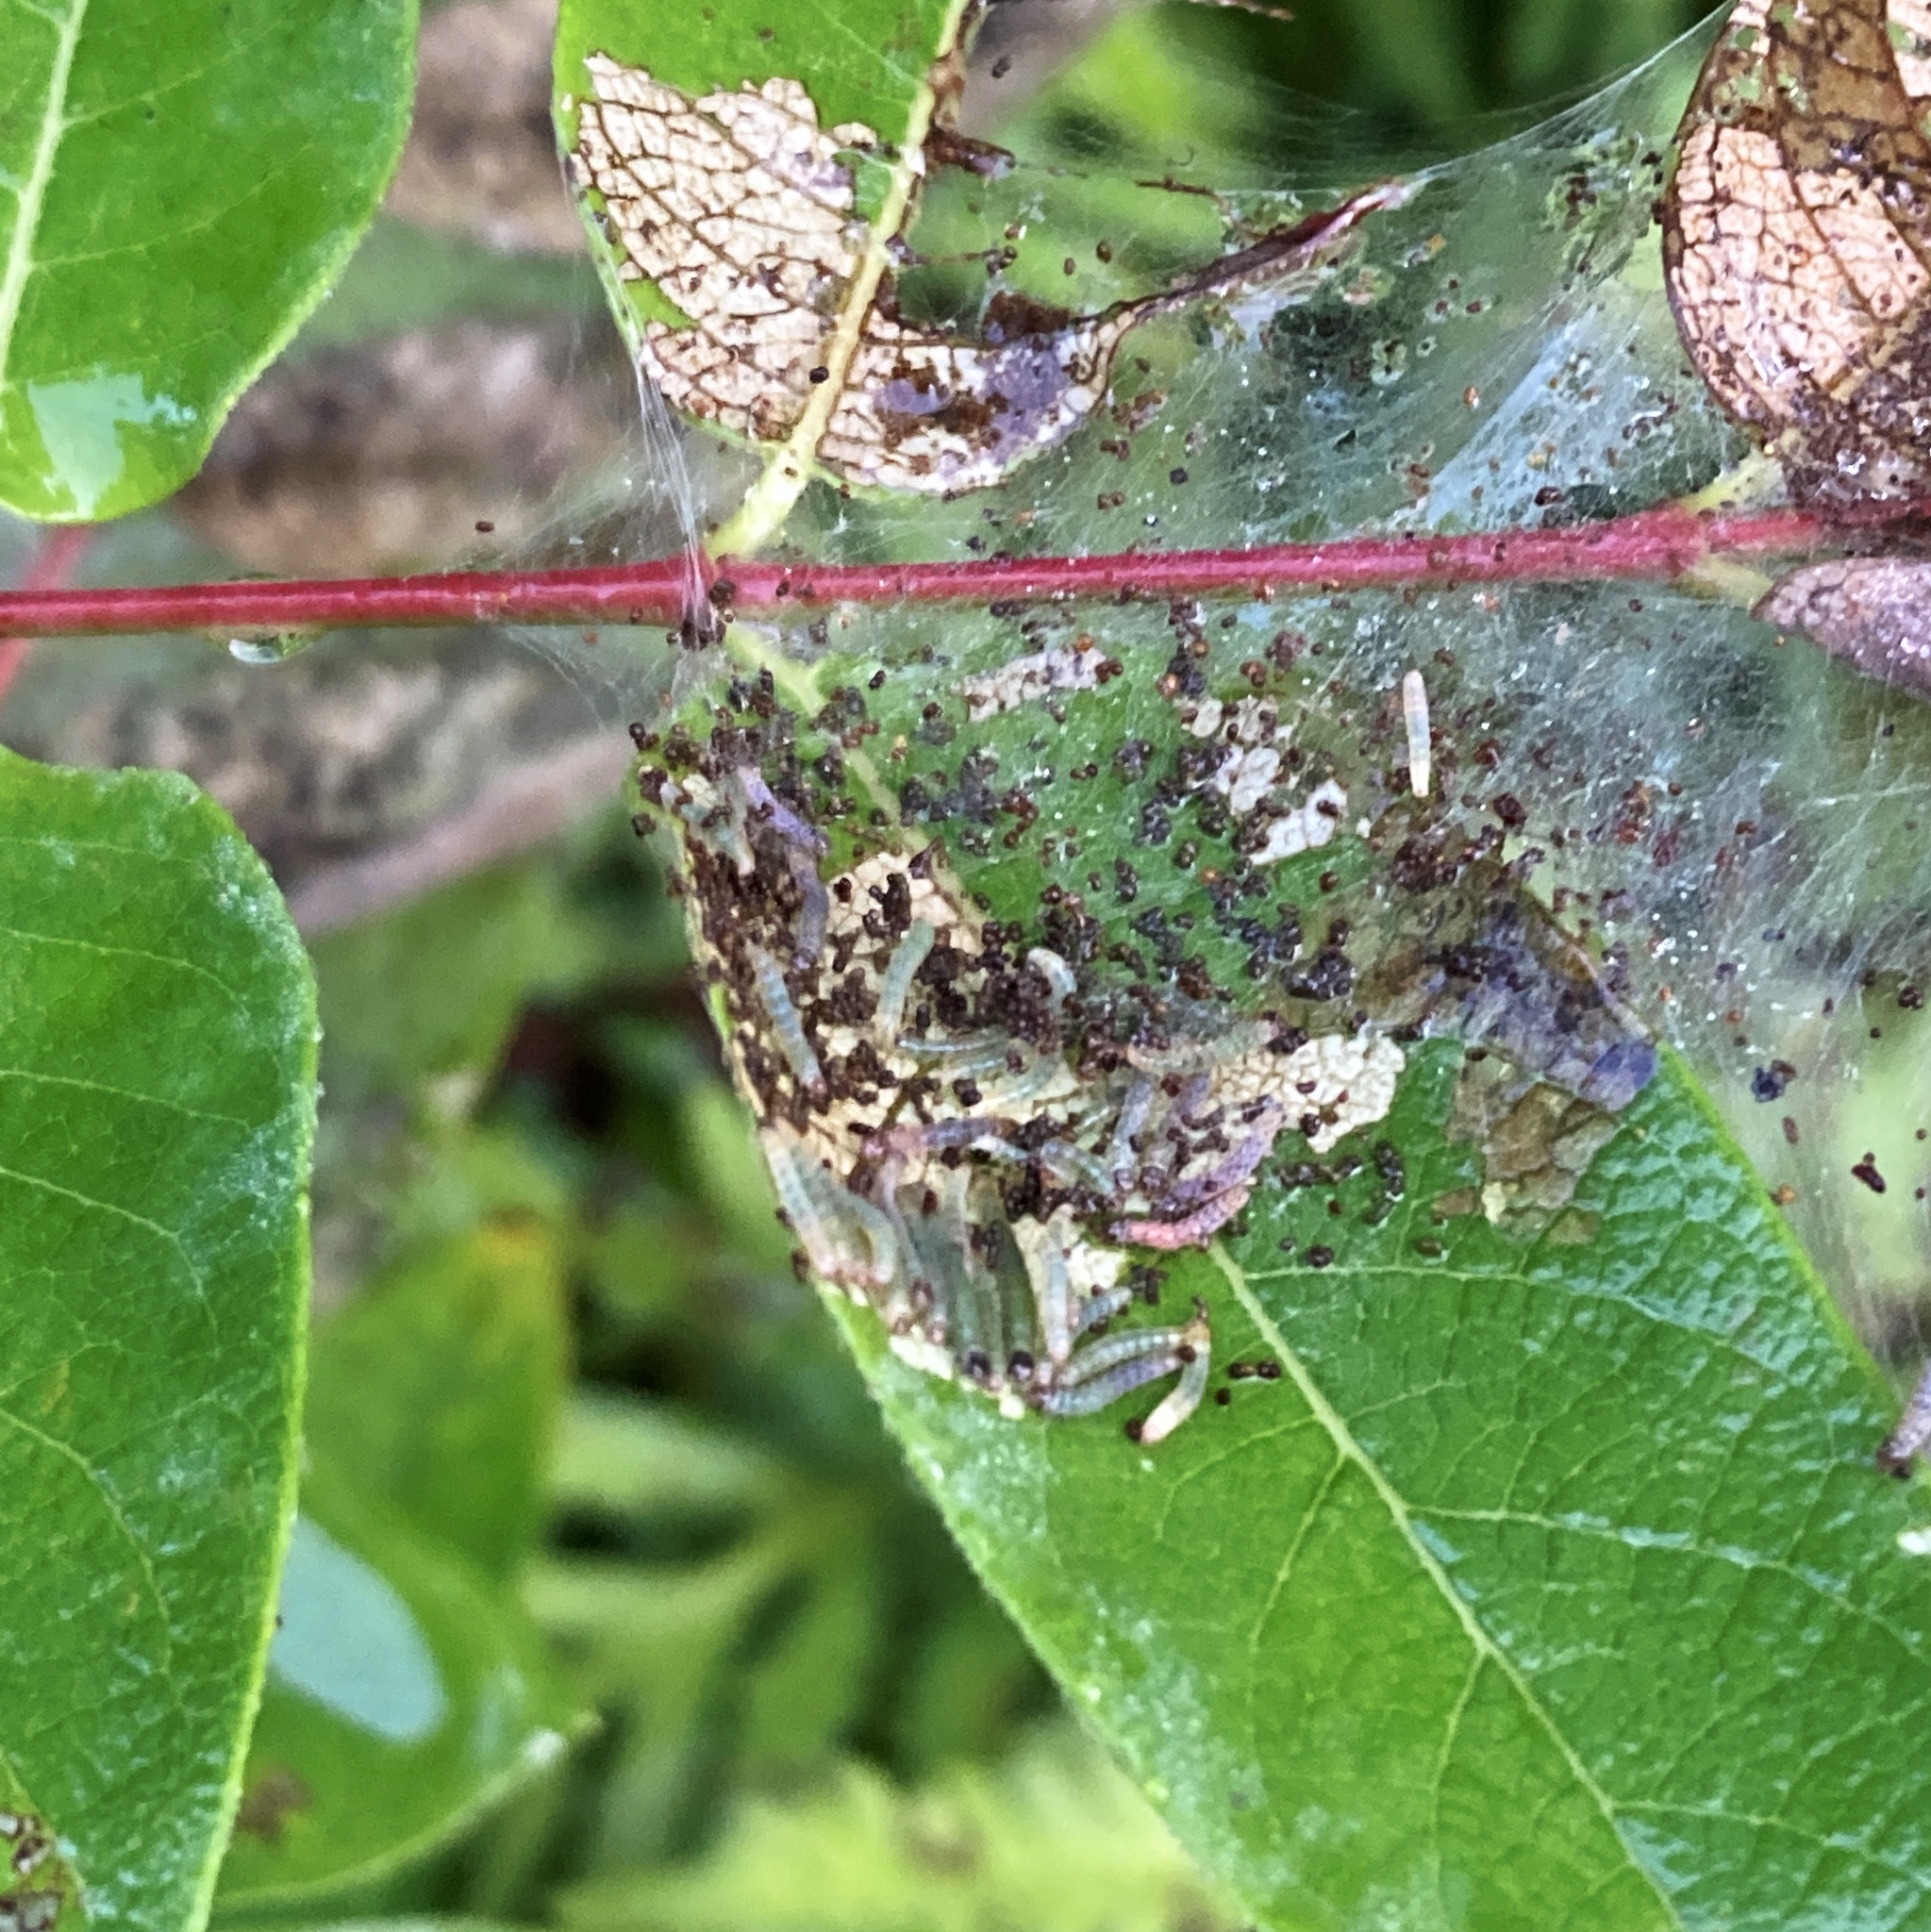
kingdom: Animalia
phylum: Arthropoda
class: Insecta
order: Lepidoptera
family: Crambidae
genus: Saucrobotys
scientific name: Saucrobotys futilalis
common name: Dogbane saucrobotys moth
